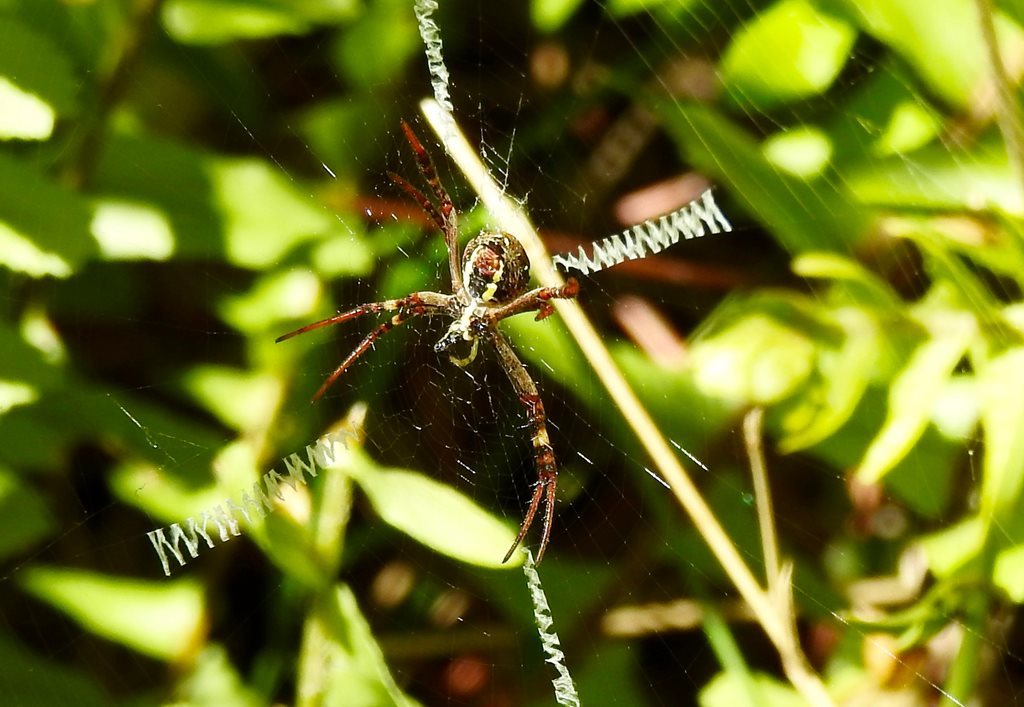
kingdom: Animalia
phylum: Arthropoda
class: Arachnida
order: Araneae
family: Araneidae
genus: Argiope
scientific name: Argiope keyserlingi
